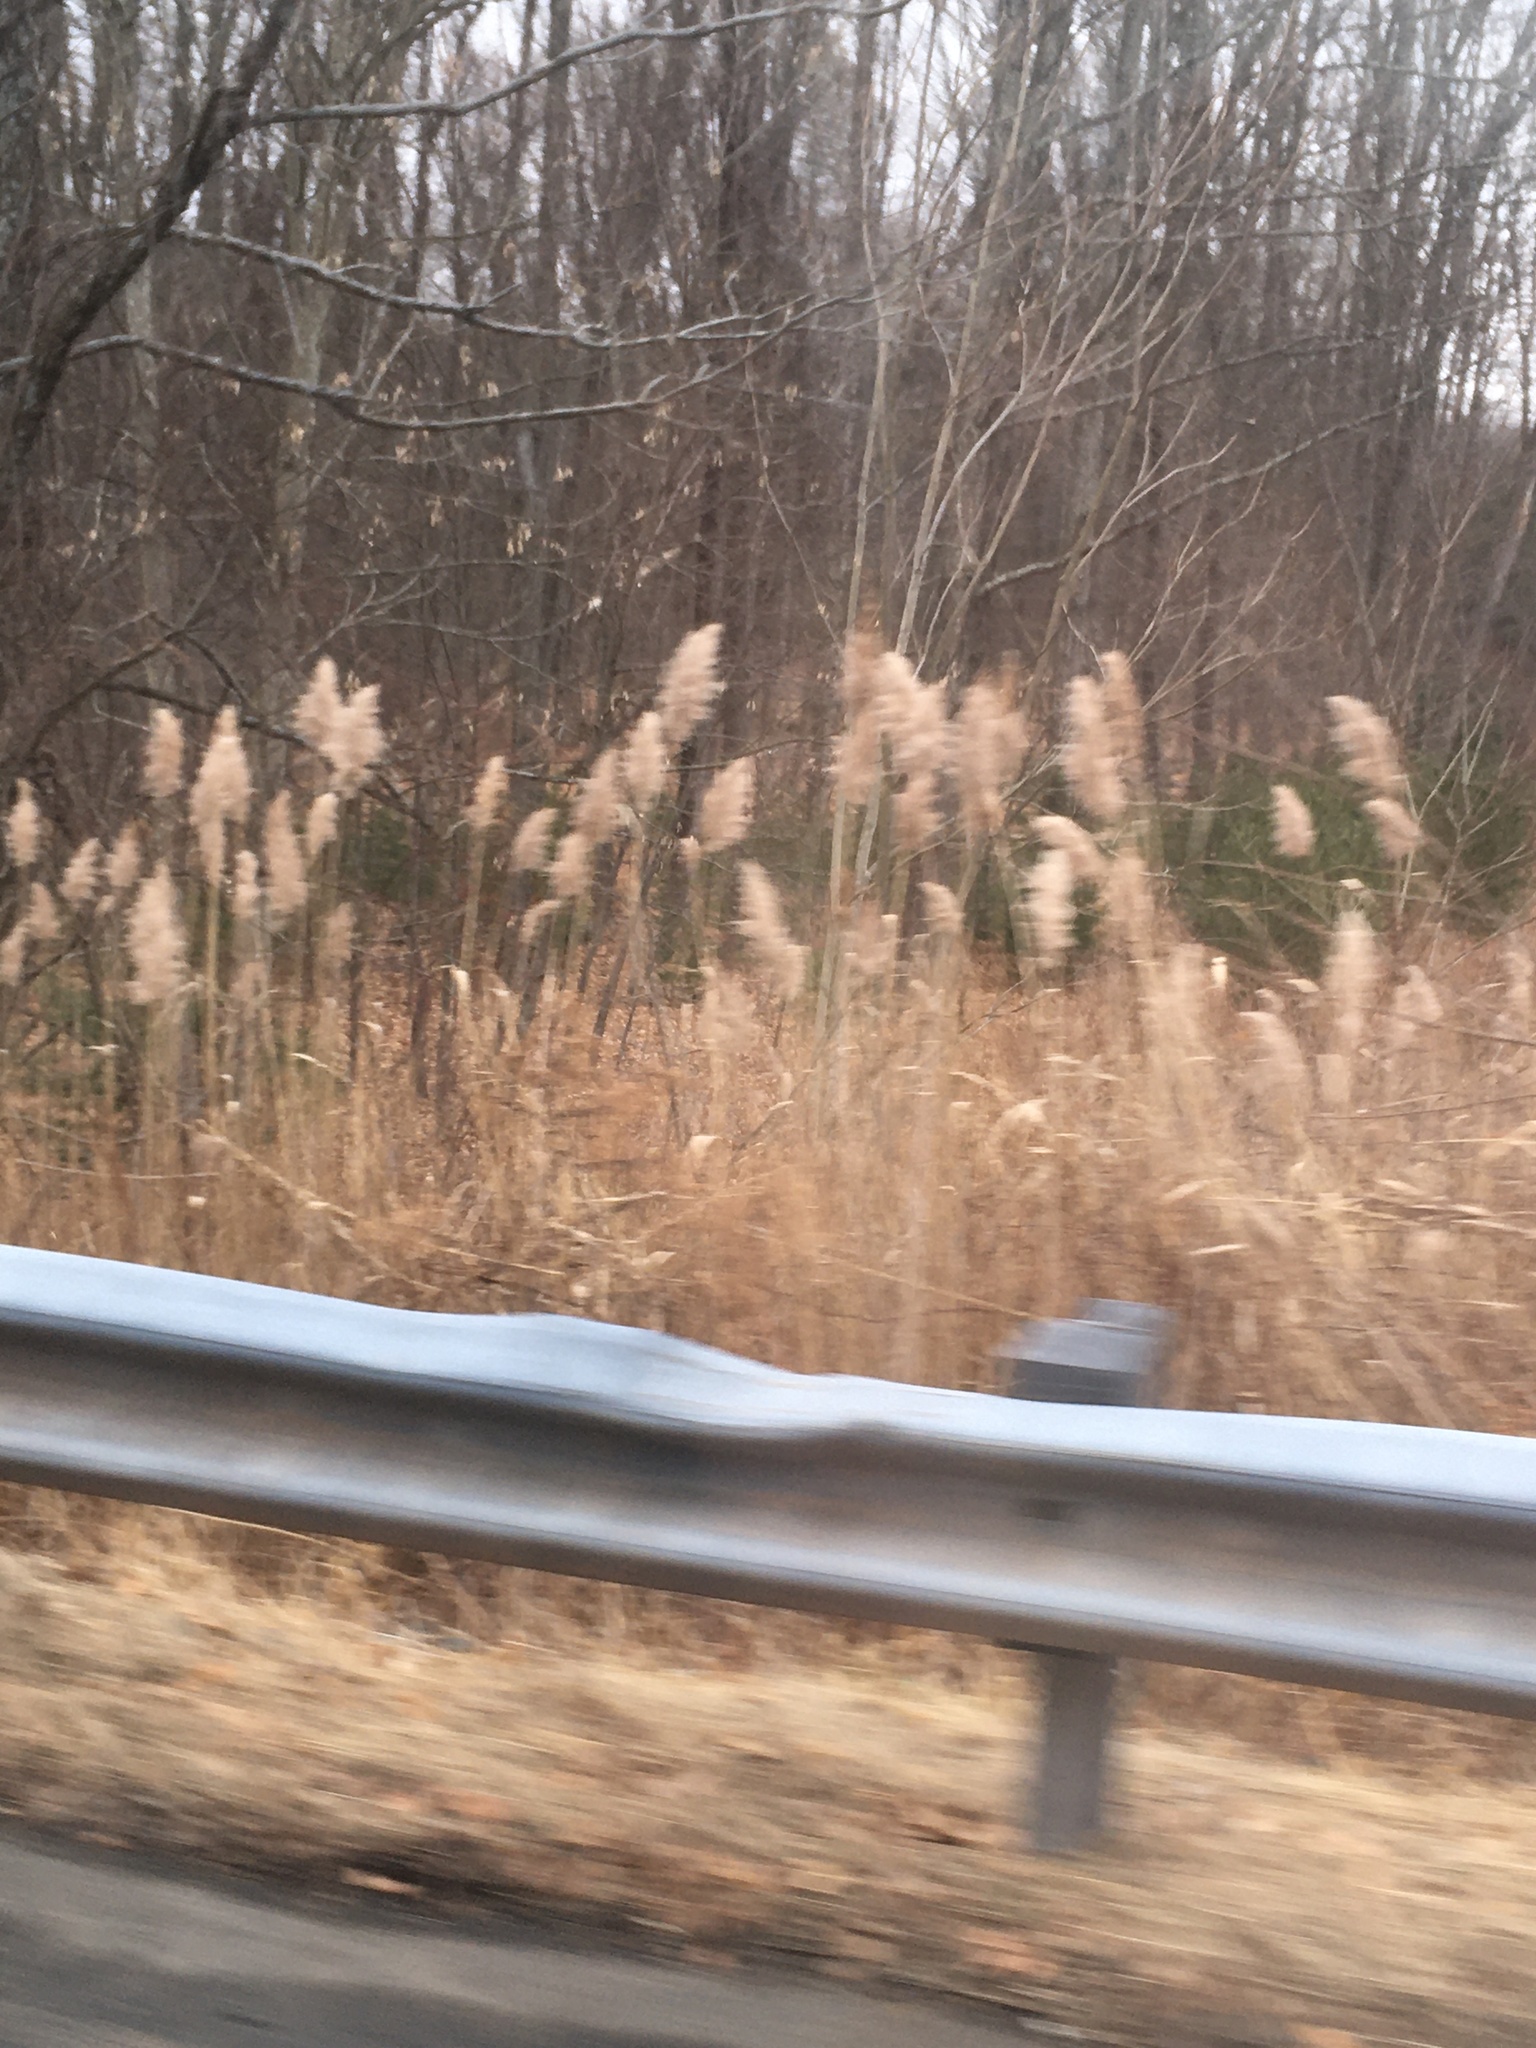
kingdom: Plantae
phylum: Tracheophyta
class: Liliopsida
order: Poales
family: Poaceae
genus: Phragmites
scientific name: Phragmites australis
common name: Common reed
